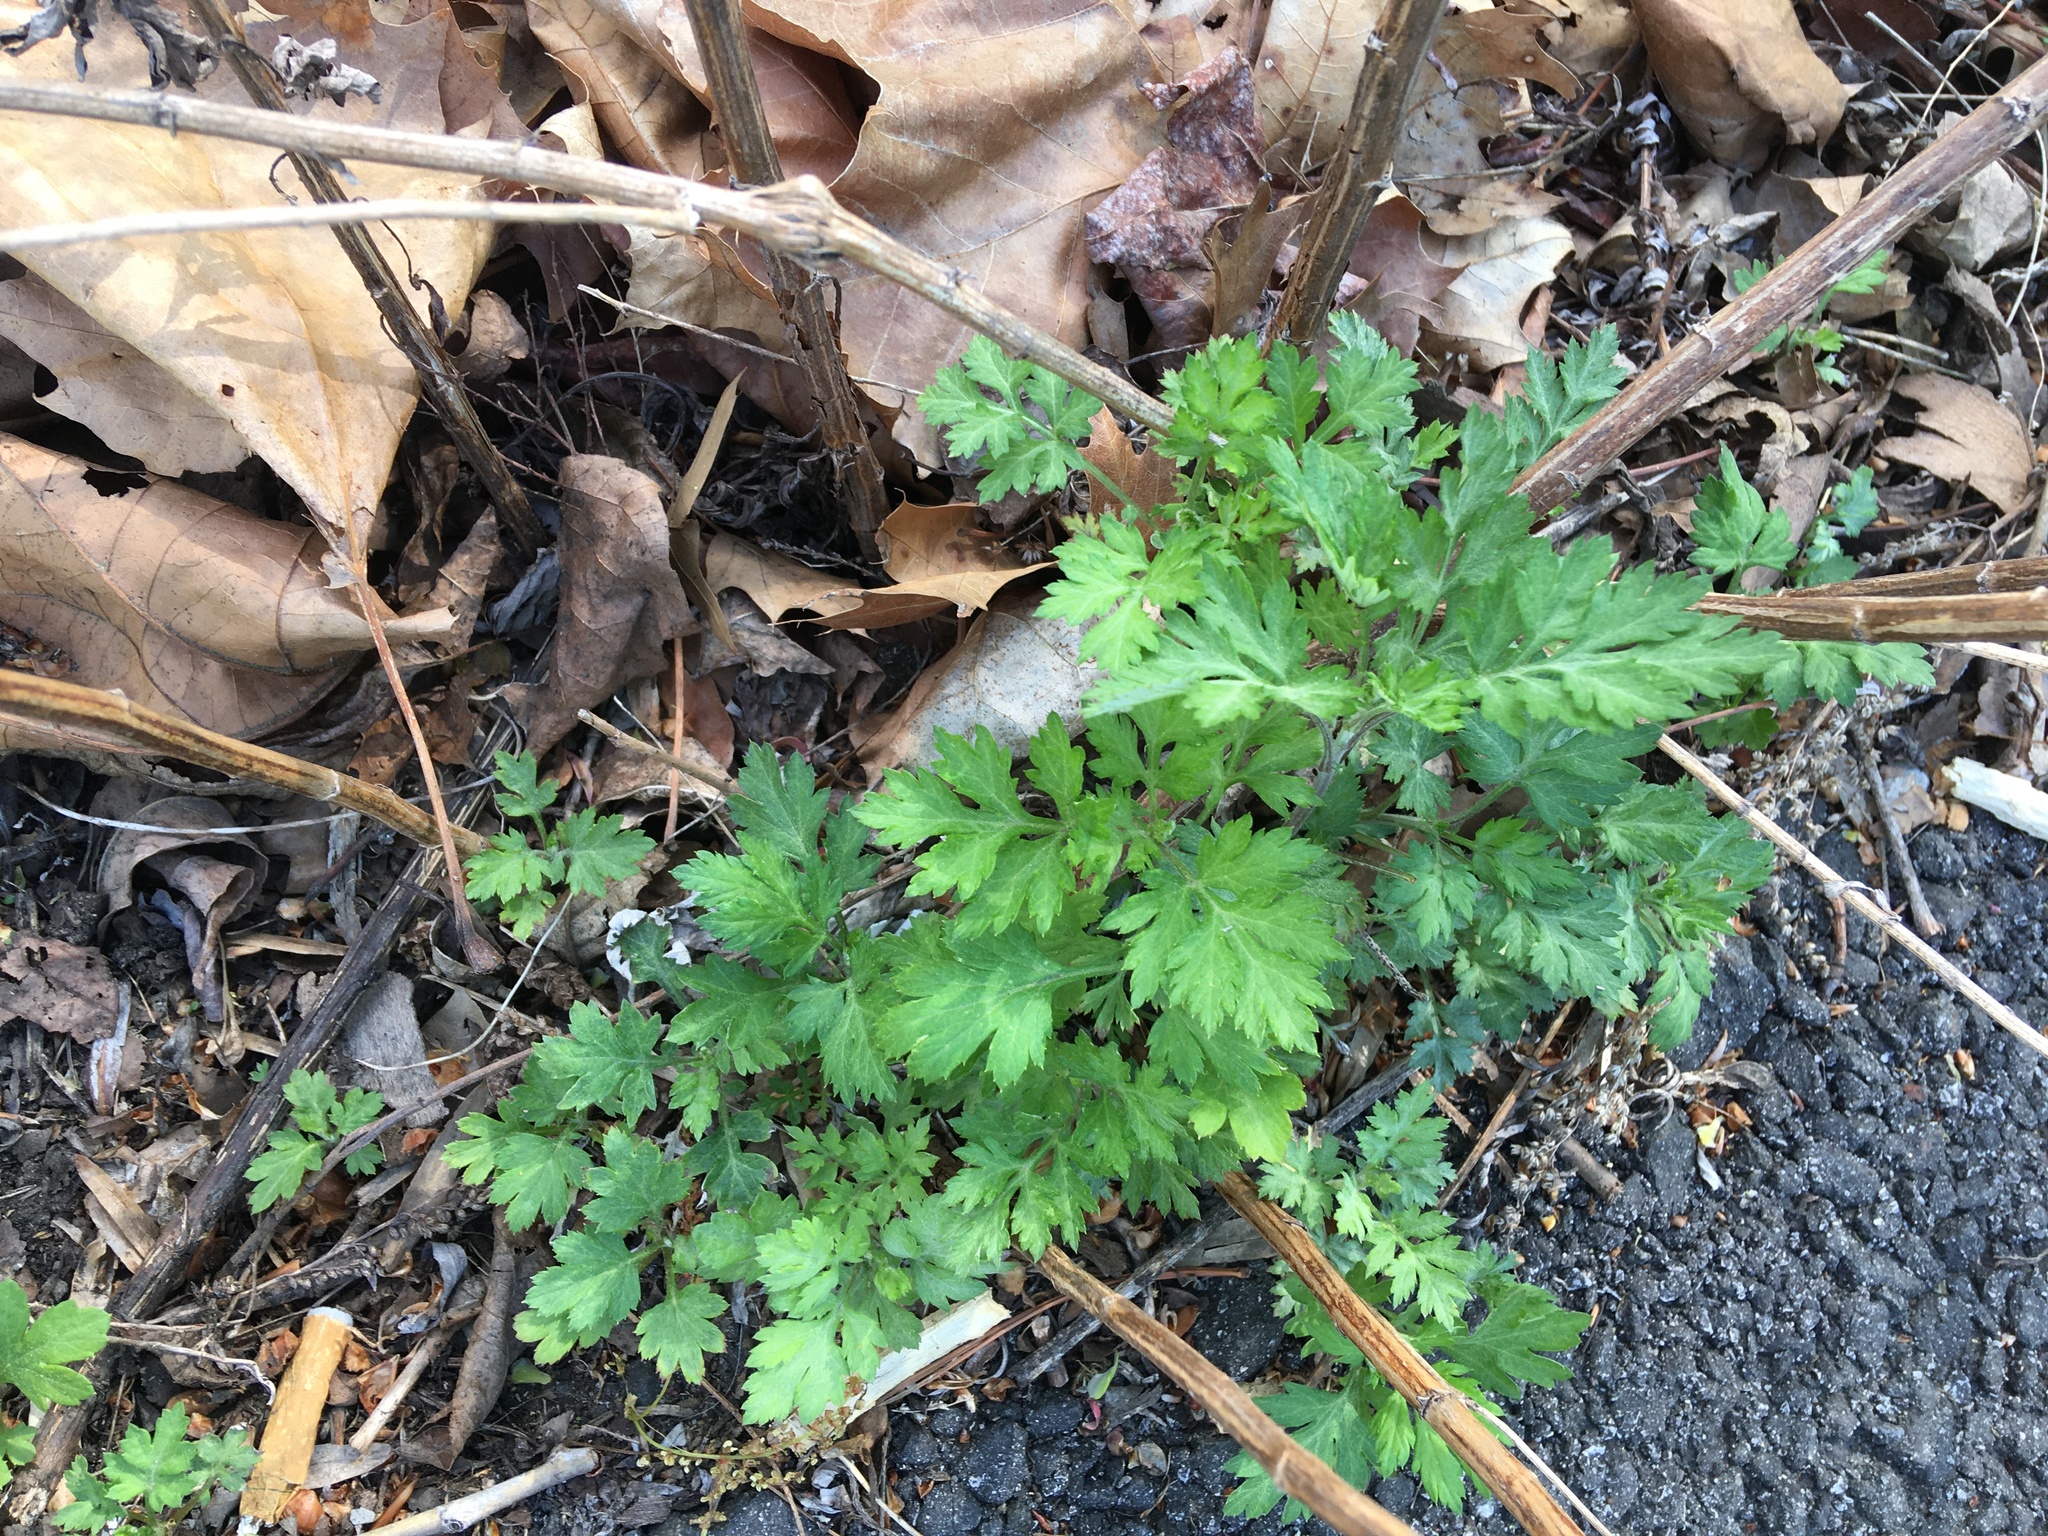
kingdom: Plantae
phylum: Tracheophyta
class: Magnoliopsida
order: Asterales
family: Asteraceae
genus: Artemisia
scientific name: Artemisia vulgaris
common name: Mugwort
